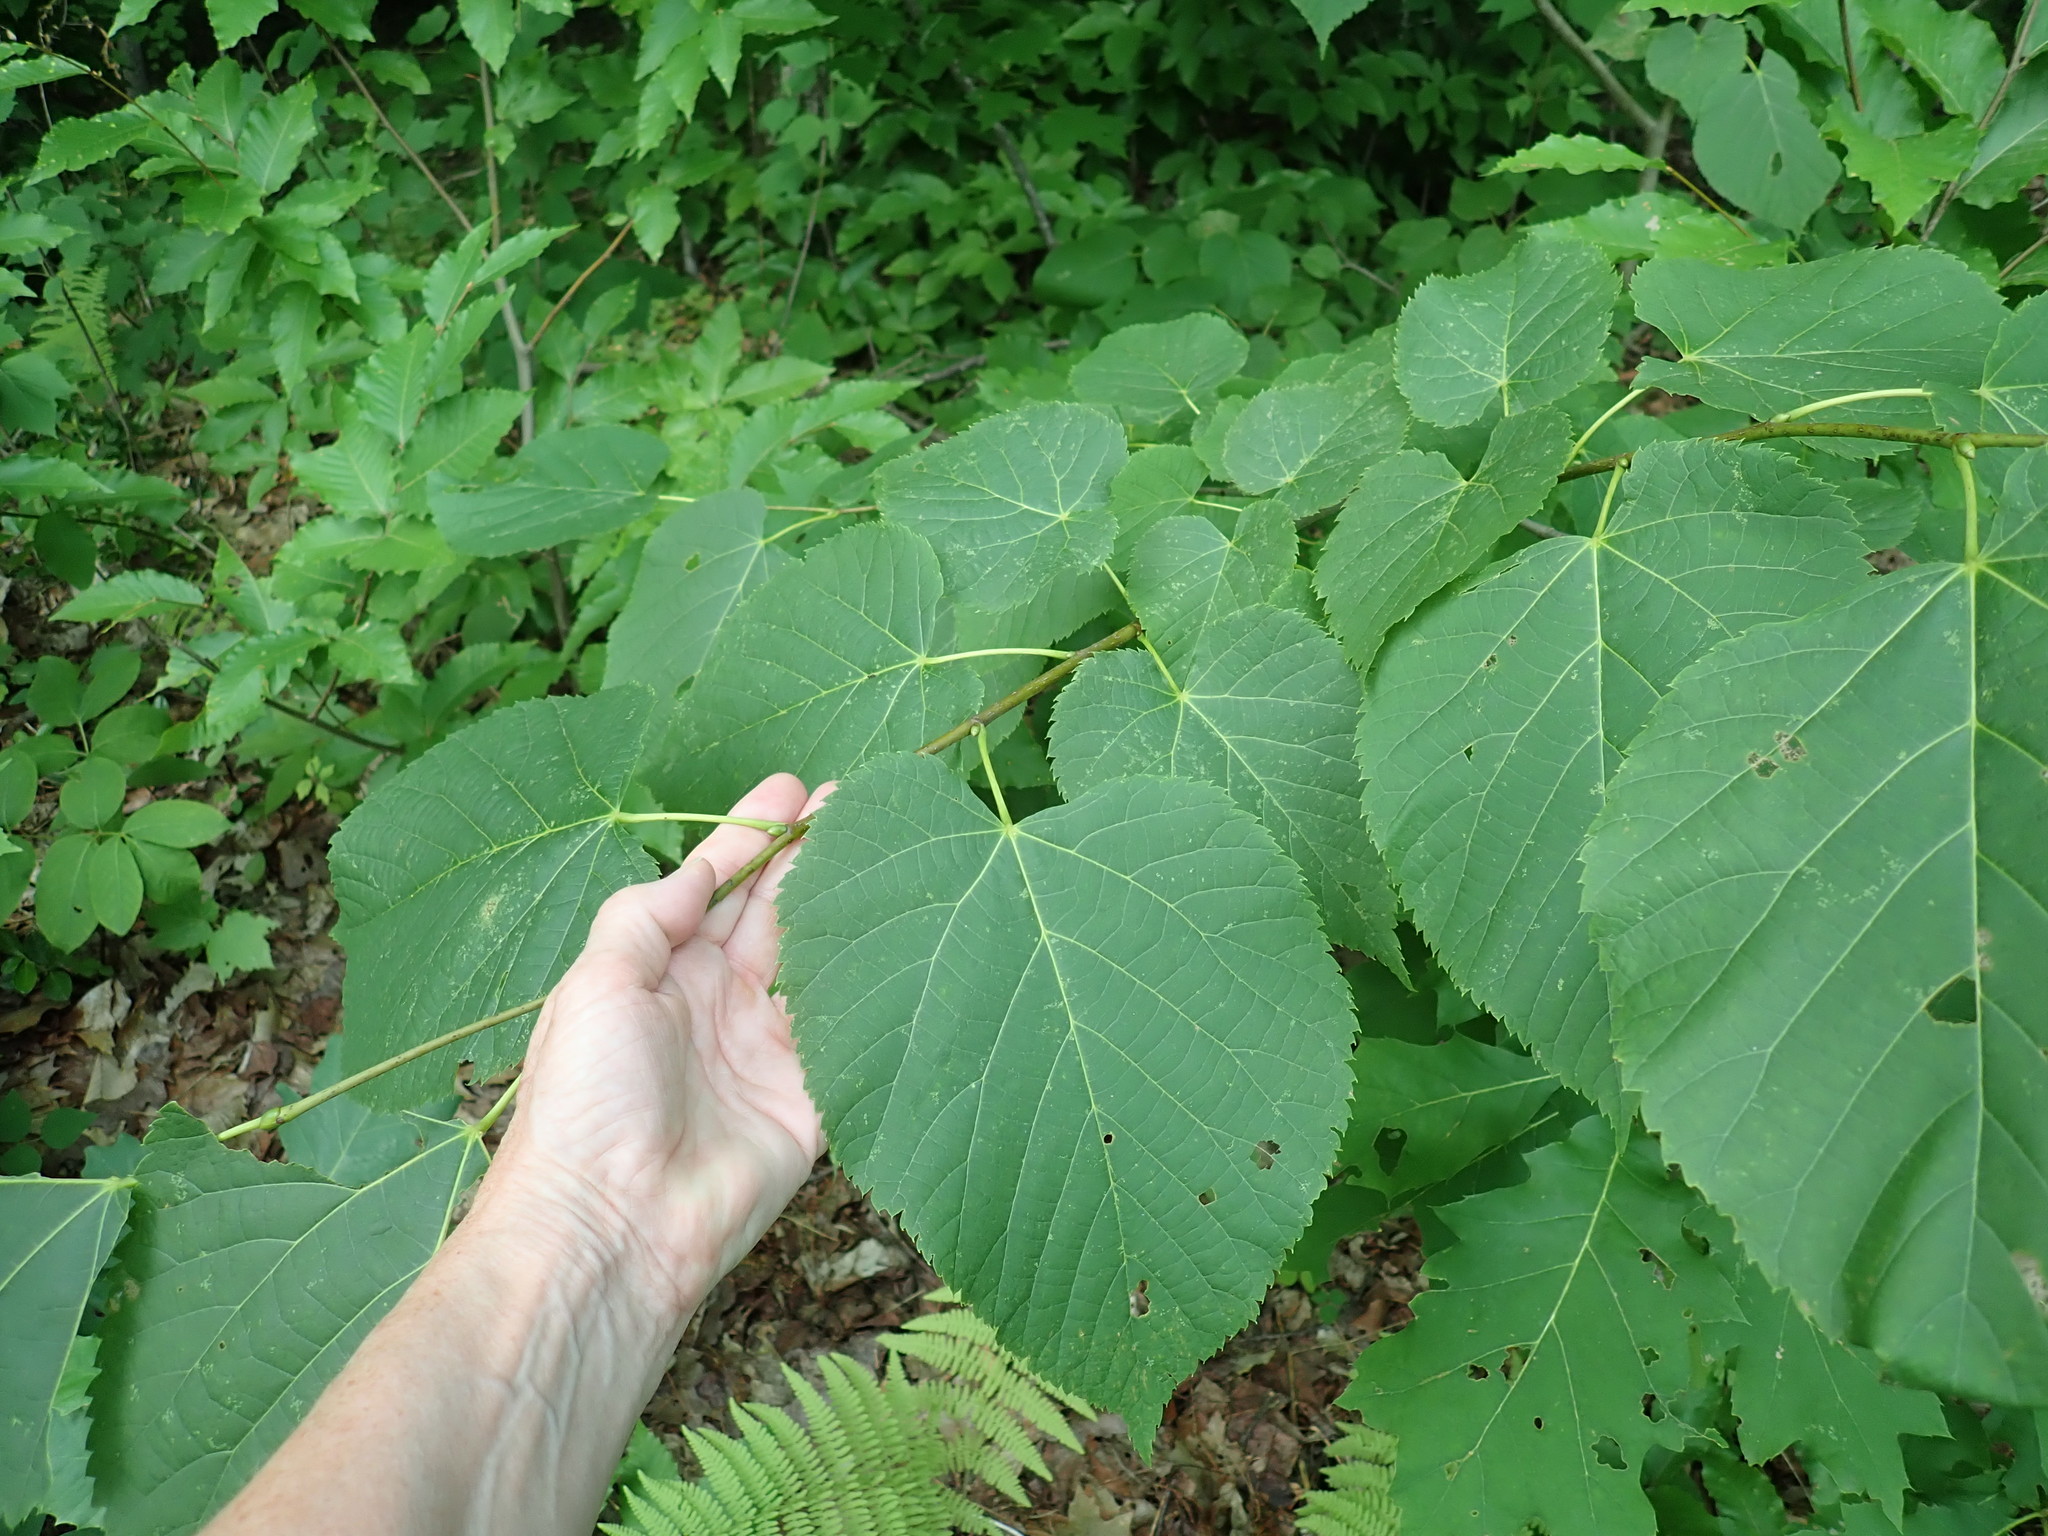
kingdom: Plantae
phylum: Tracheophyta
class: Magnoliopsida
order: Malvales
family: Malvaceae
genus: Tilia
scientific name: Tilia americana
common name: Basswood
